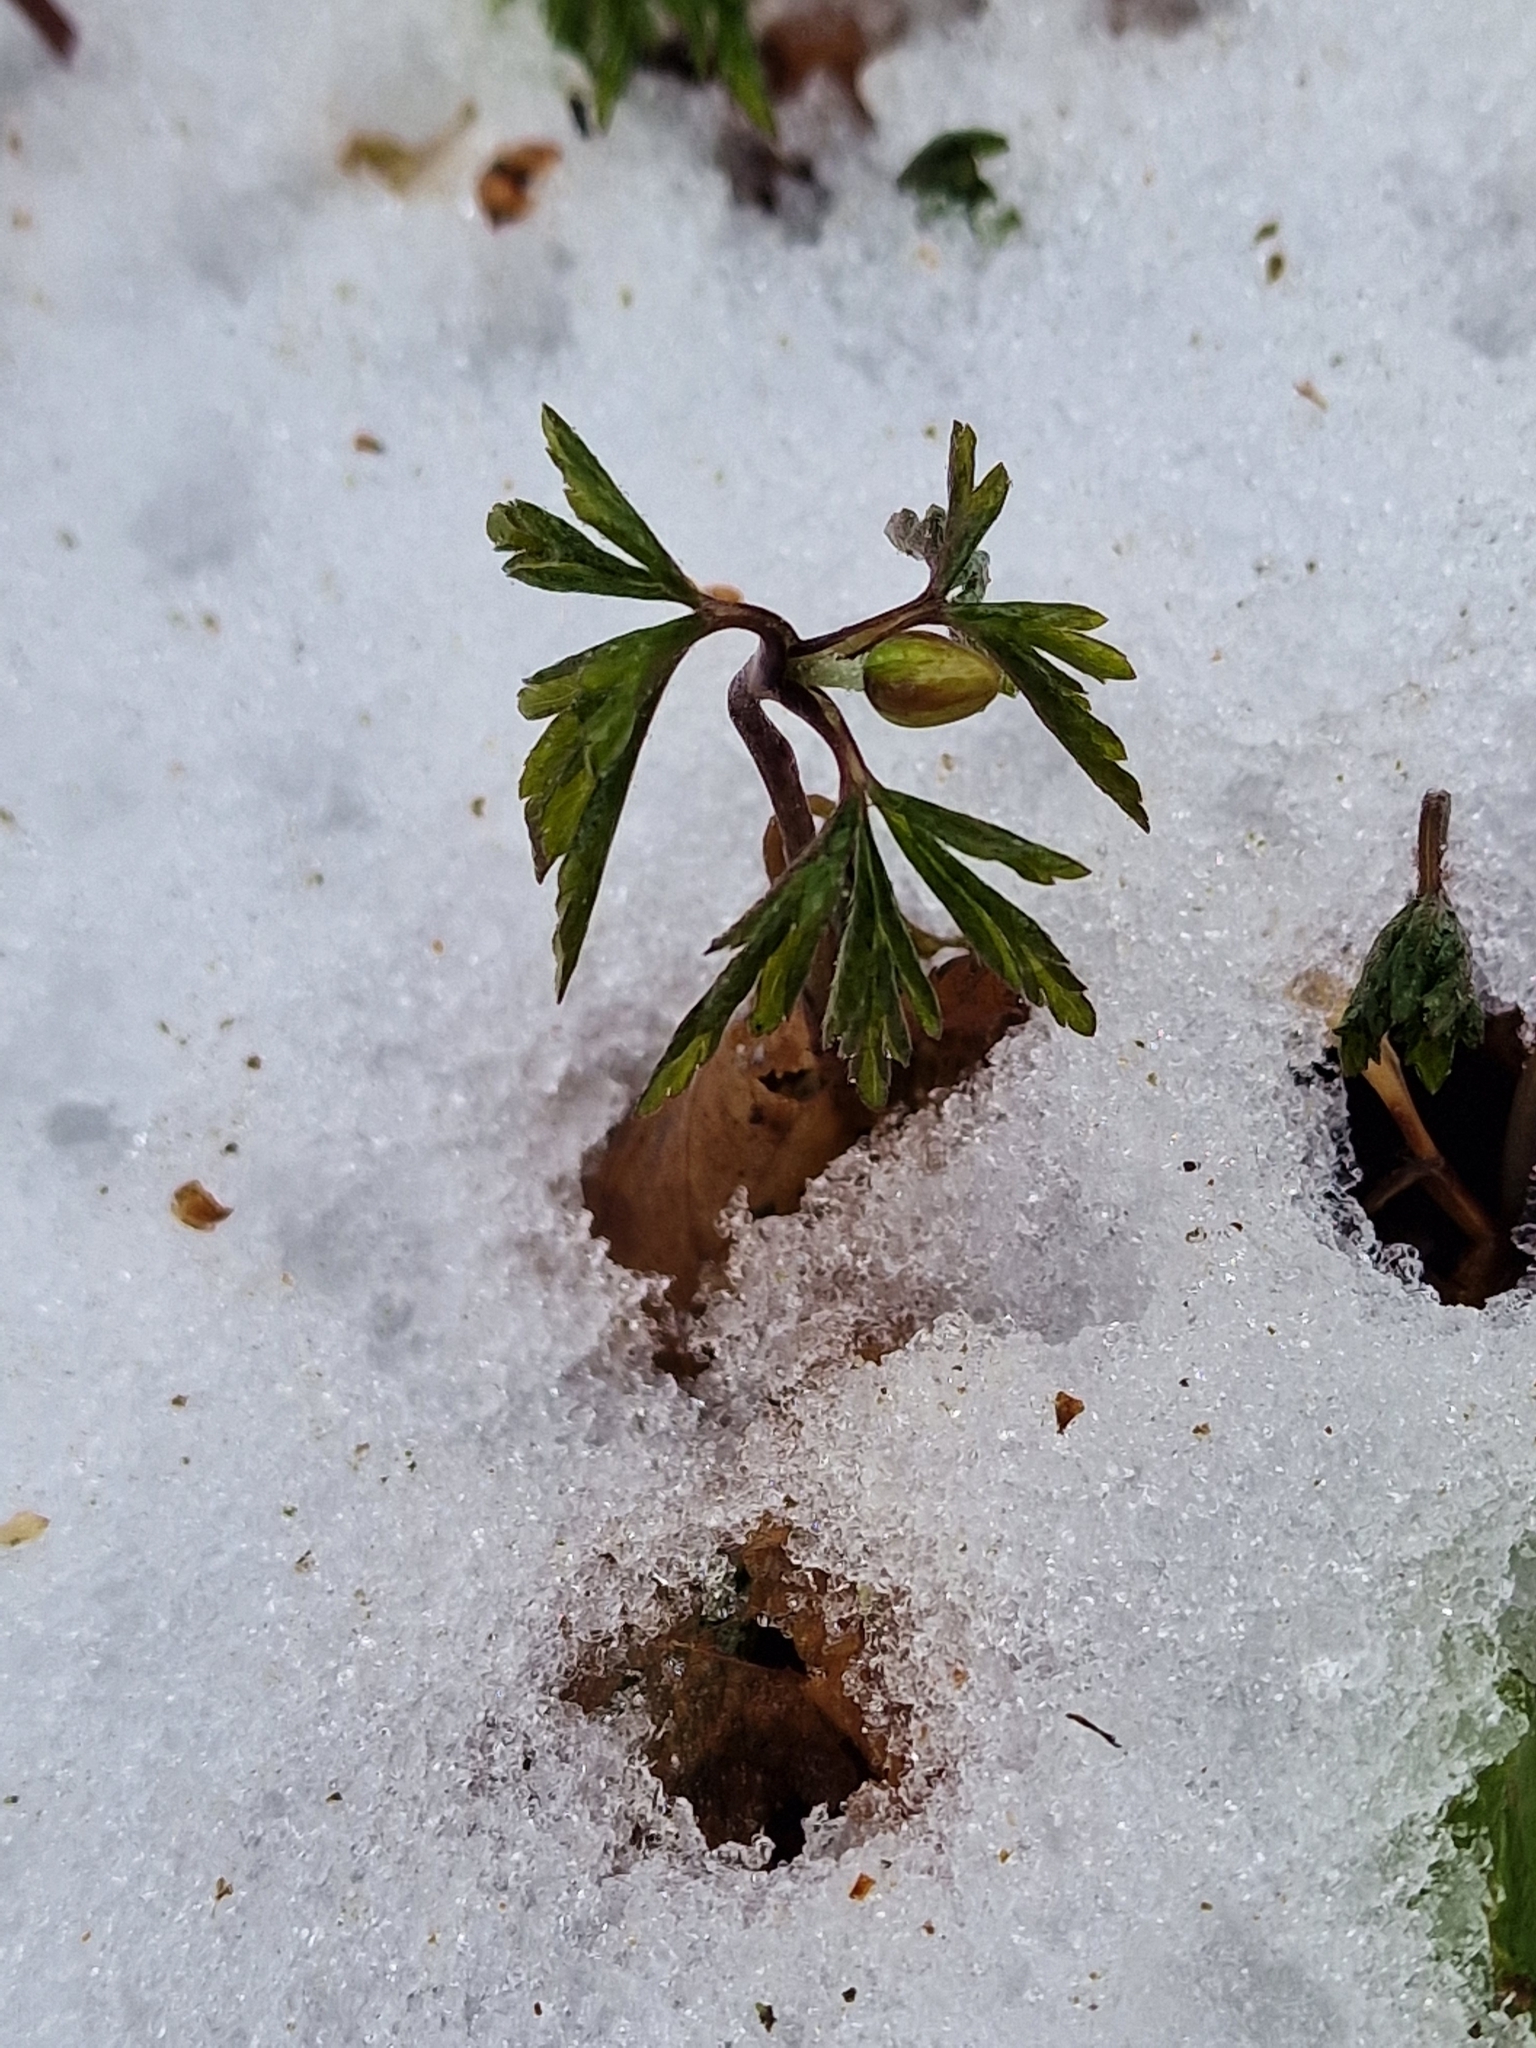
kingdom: Plantae
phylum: Tracheophyta
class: Magnoliopsida
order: Ranunculales
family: Ranunculaceae
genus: Anemone
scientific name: Anemone nemorosa
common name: Wood anemone
